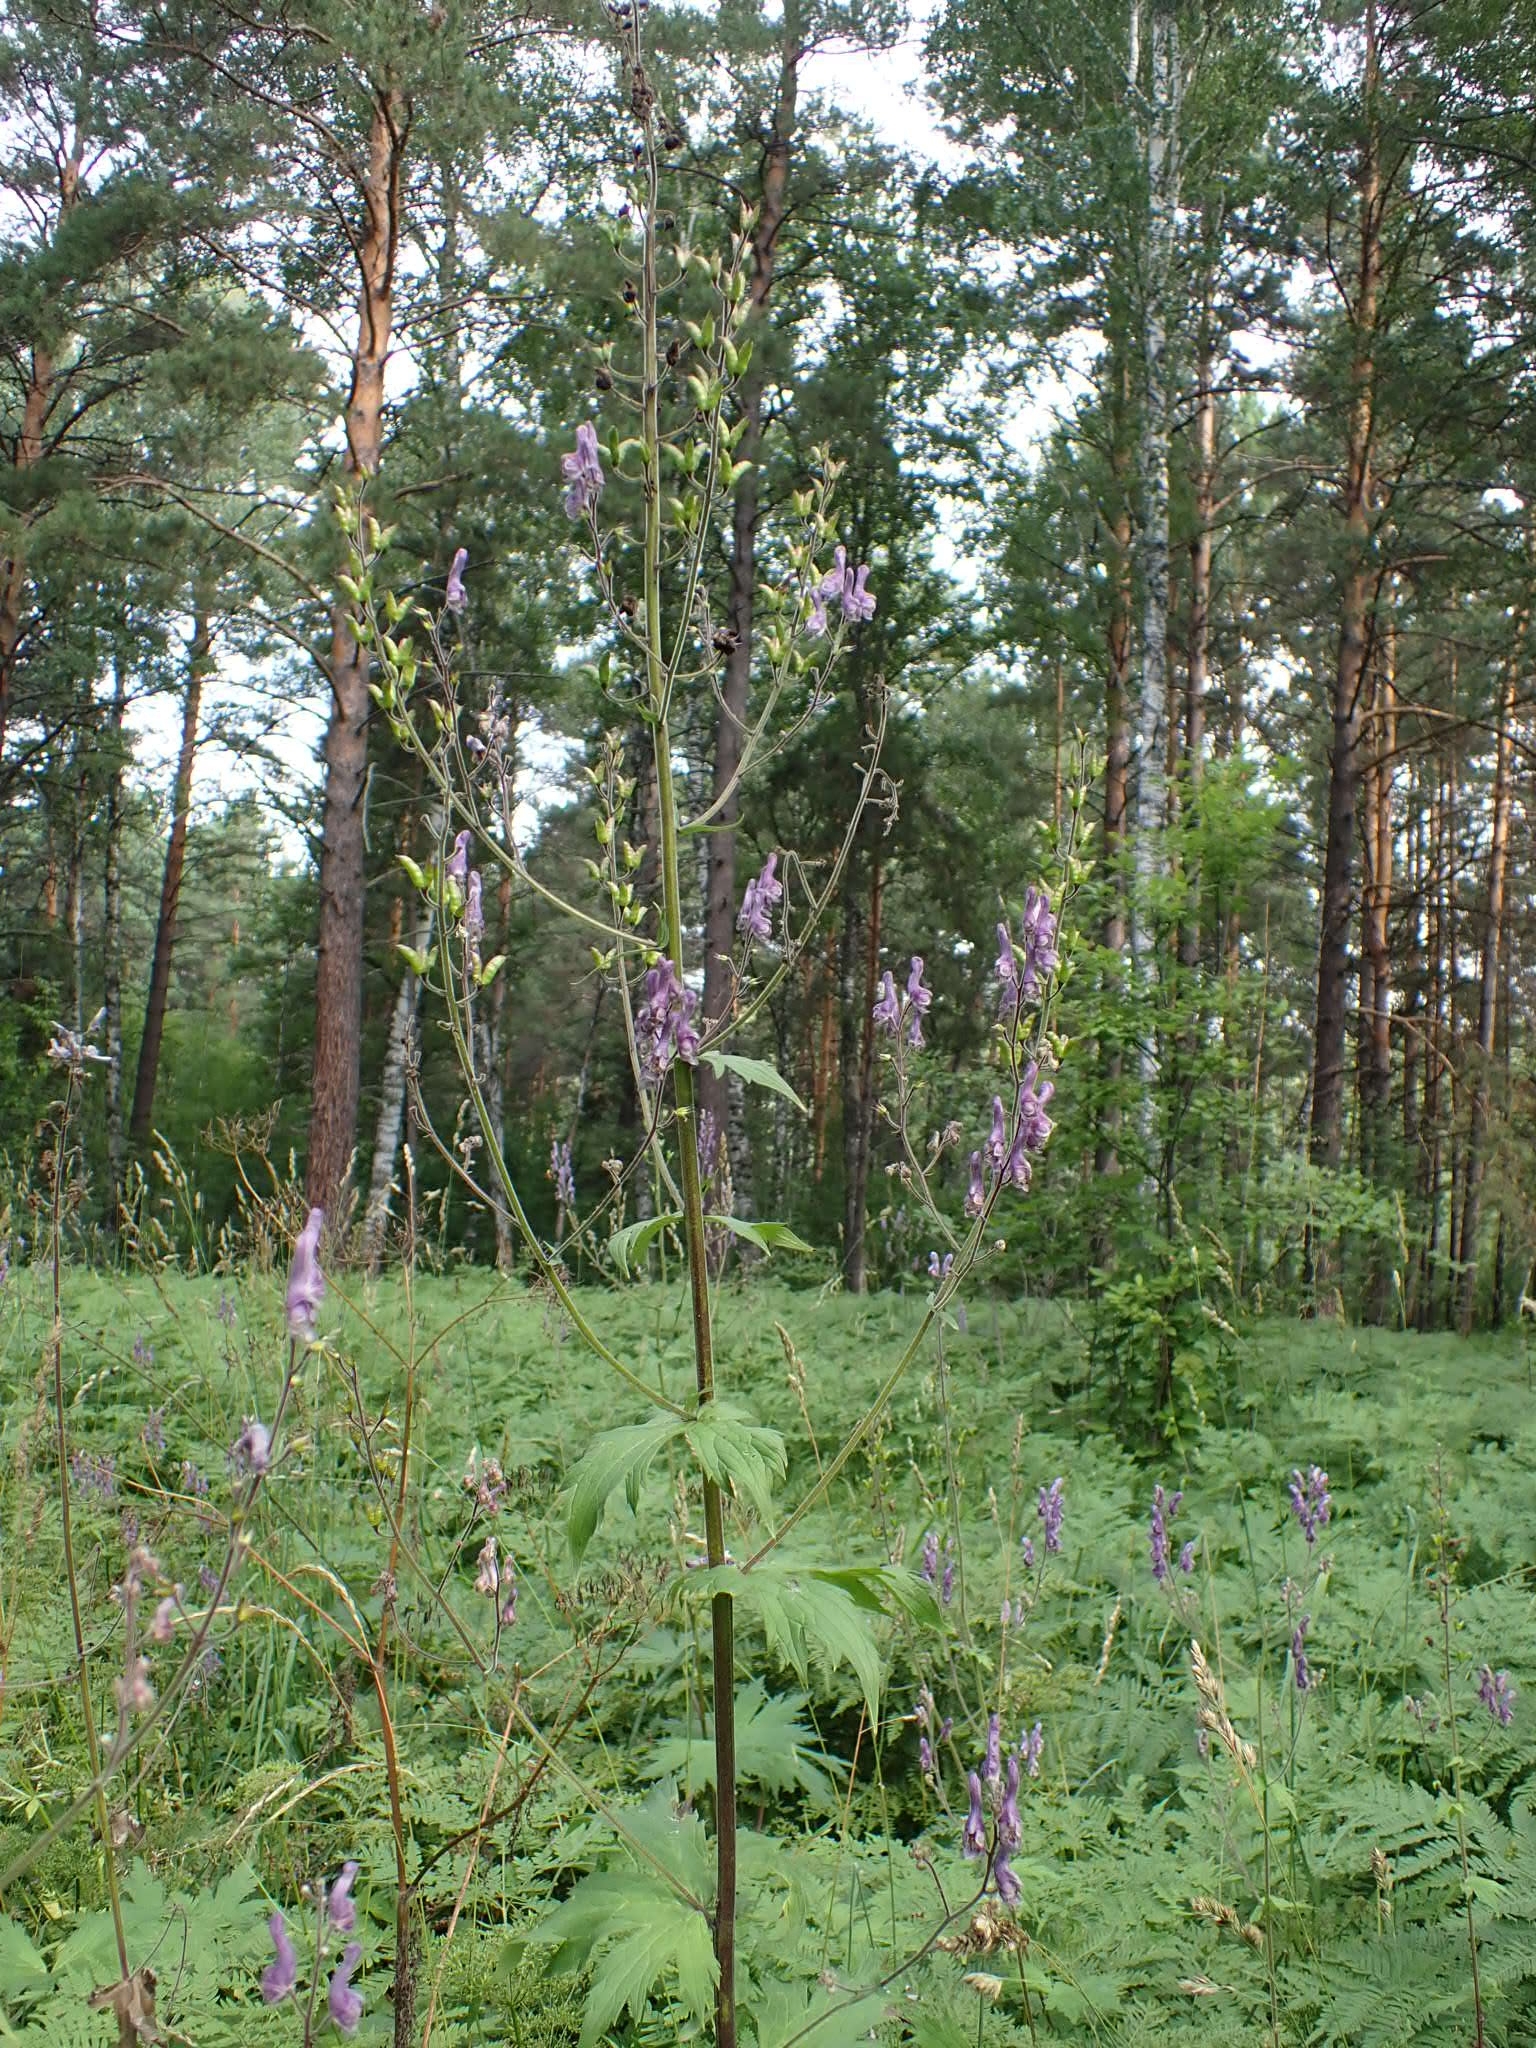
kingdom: Plantae
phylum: Tracheophyta
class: Magnoliopsida
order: Ranunculales
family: Ranunculaceae
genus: Aconitum
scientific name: Aconitum septentrionale
